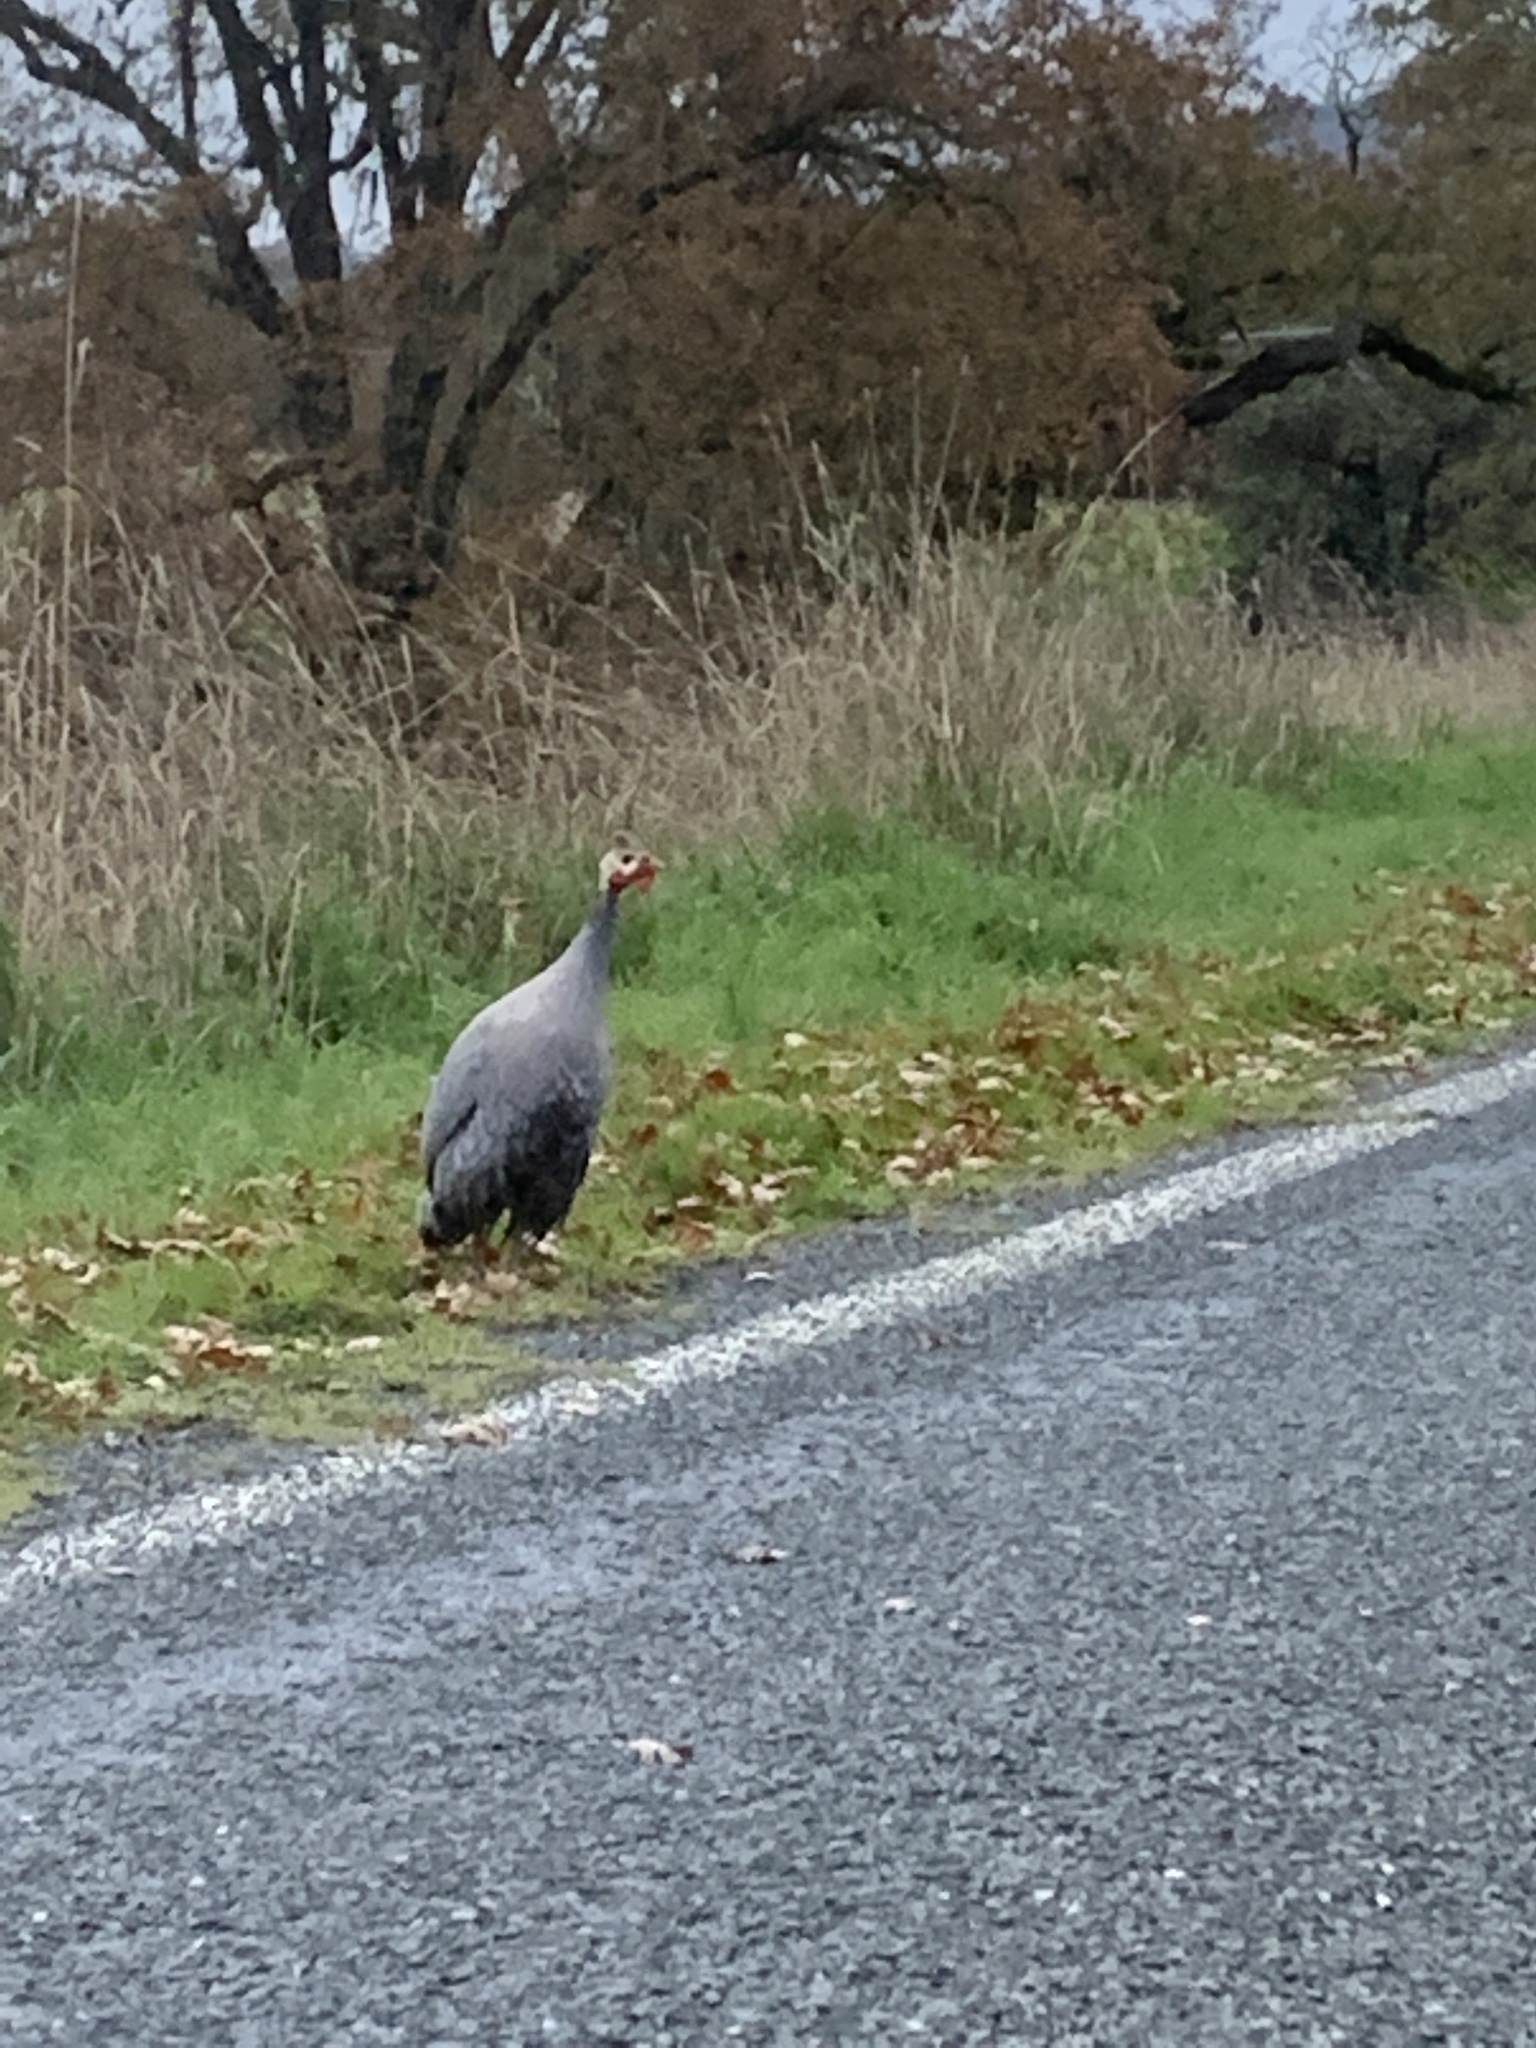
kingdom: Animalia
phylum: Chordata
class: Aves
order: Galliformes
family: Numididae
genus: Numida
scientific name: Numida meleagris
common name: Helmeted guineafowl
